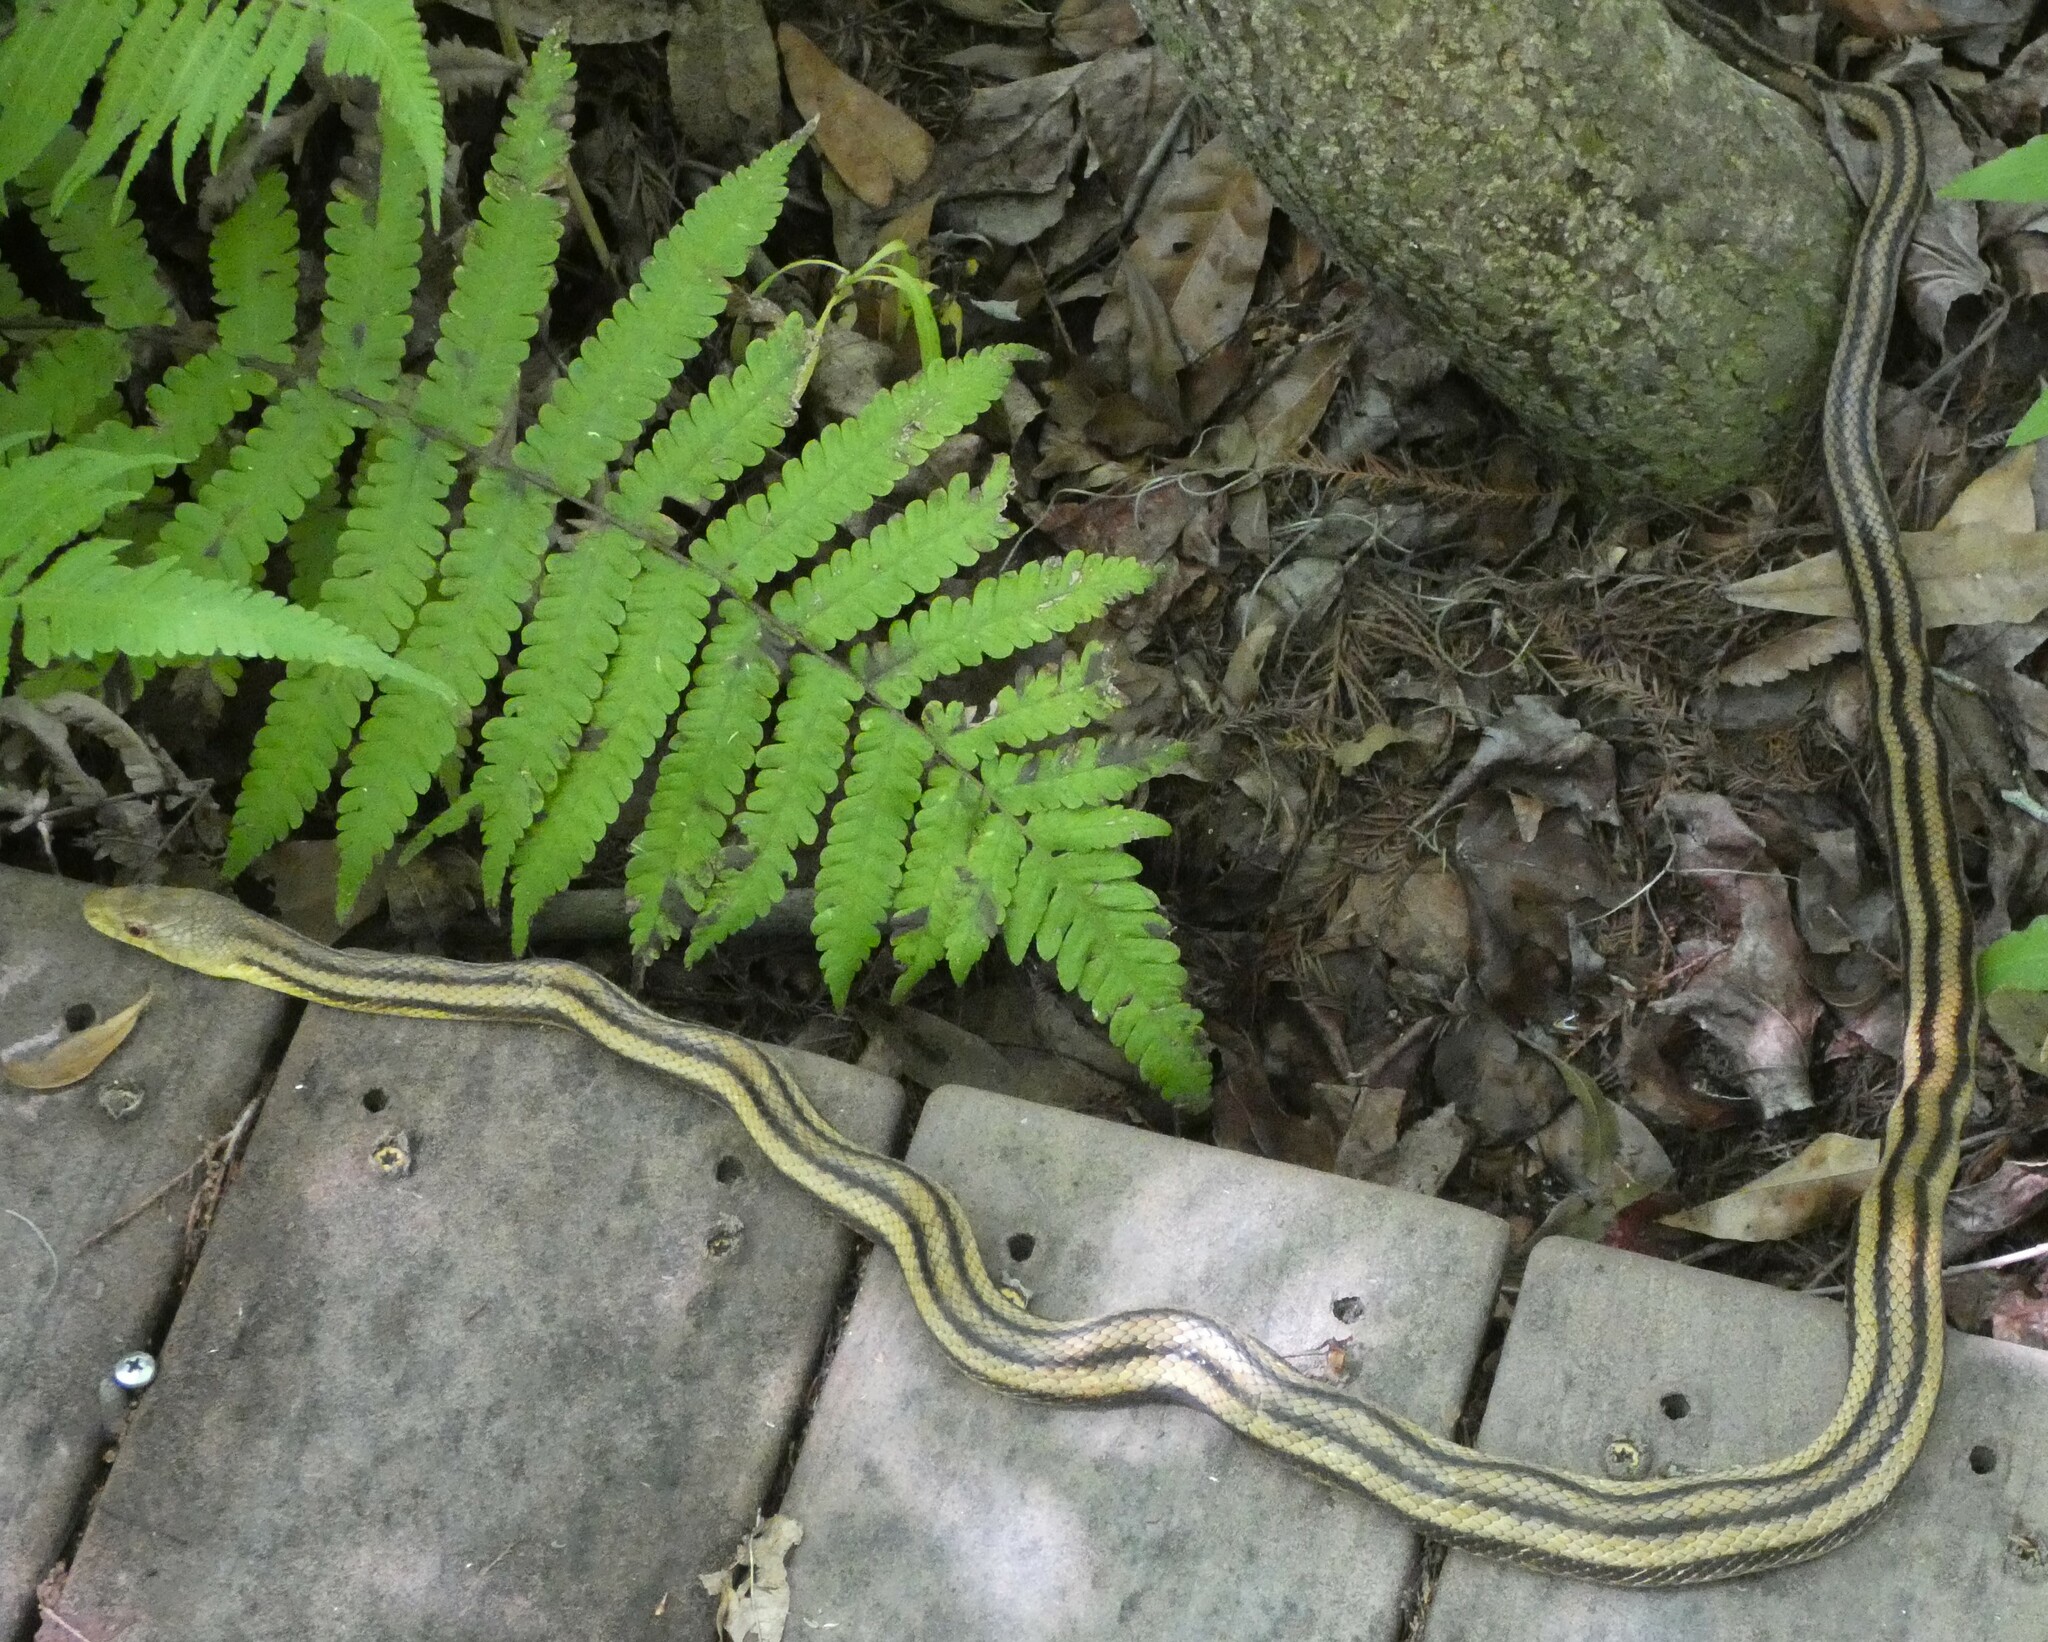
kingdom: Animalia
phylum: Chordata
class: Squamata
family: Colubridae
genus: Pantherophis
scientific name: Pantherophis alleghaniensis
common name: Eastern rat snake
